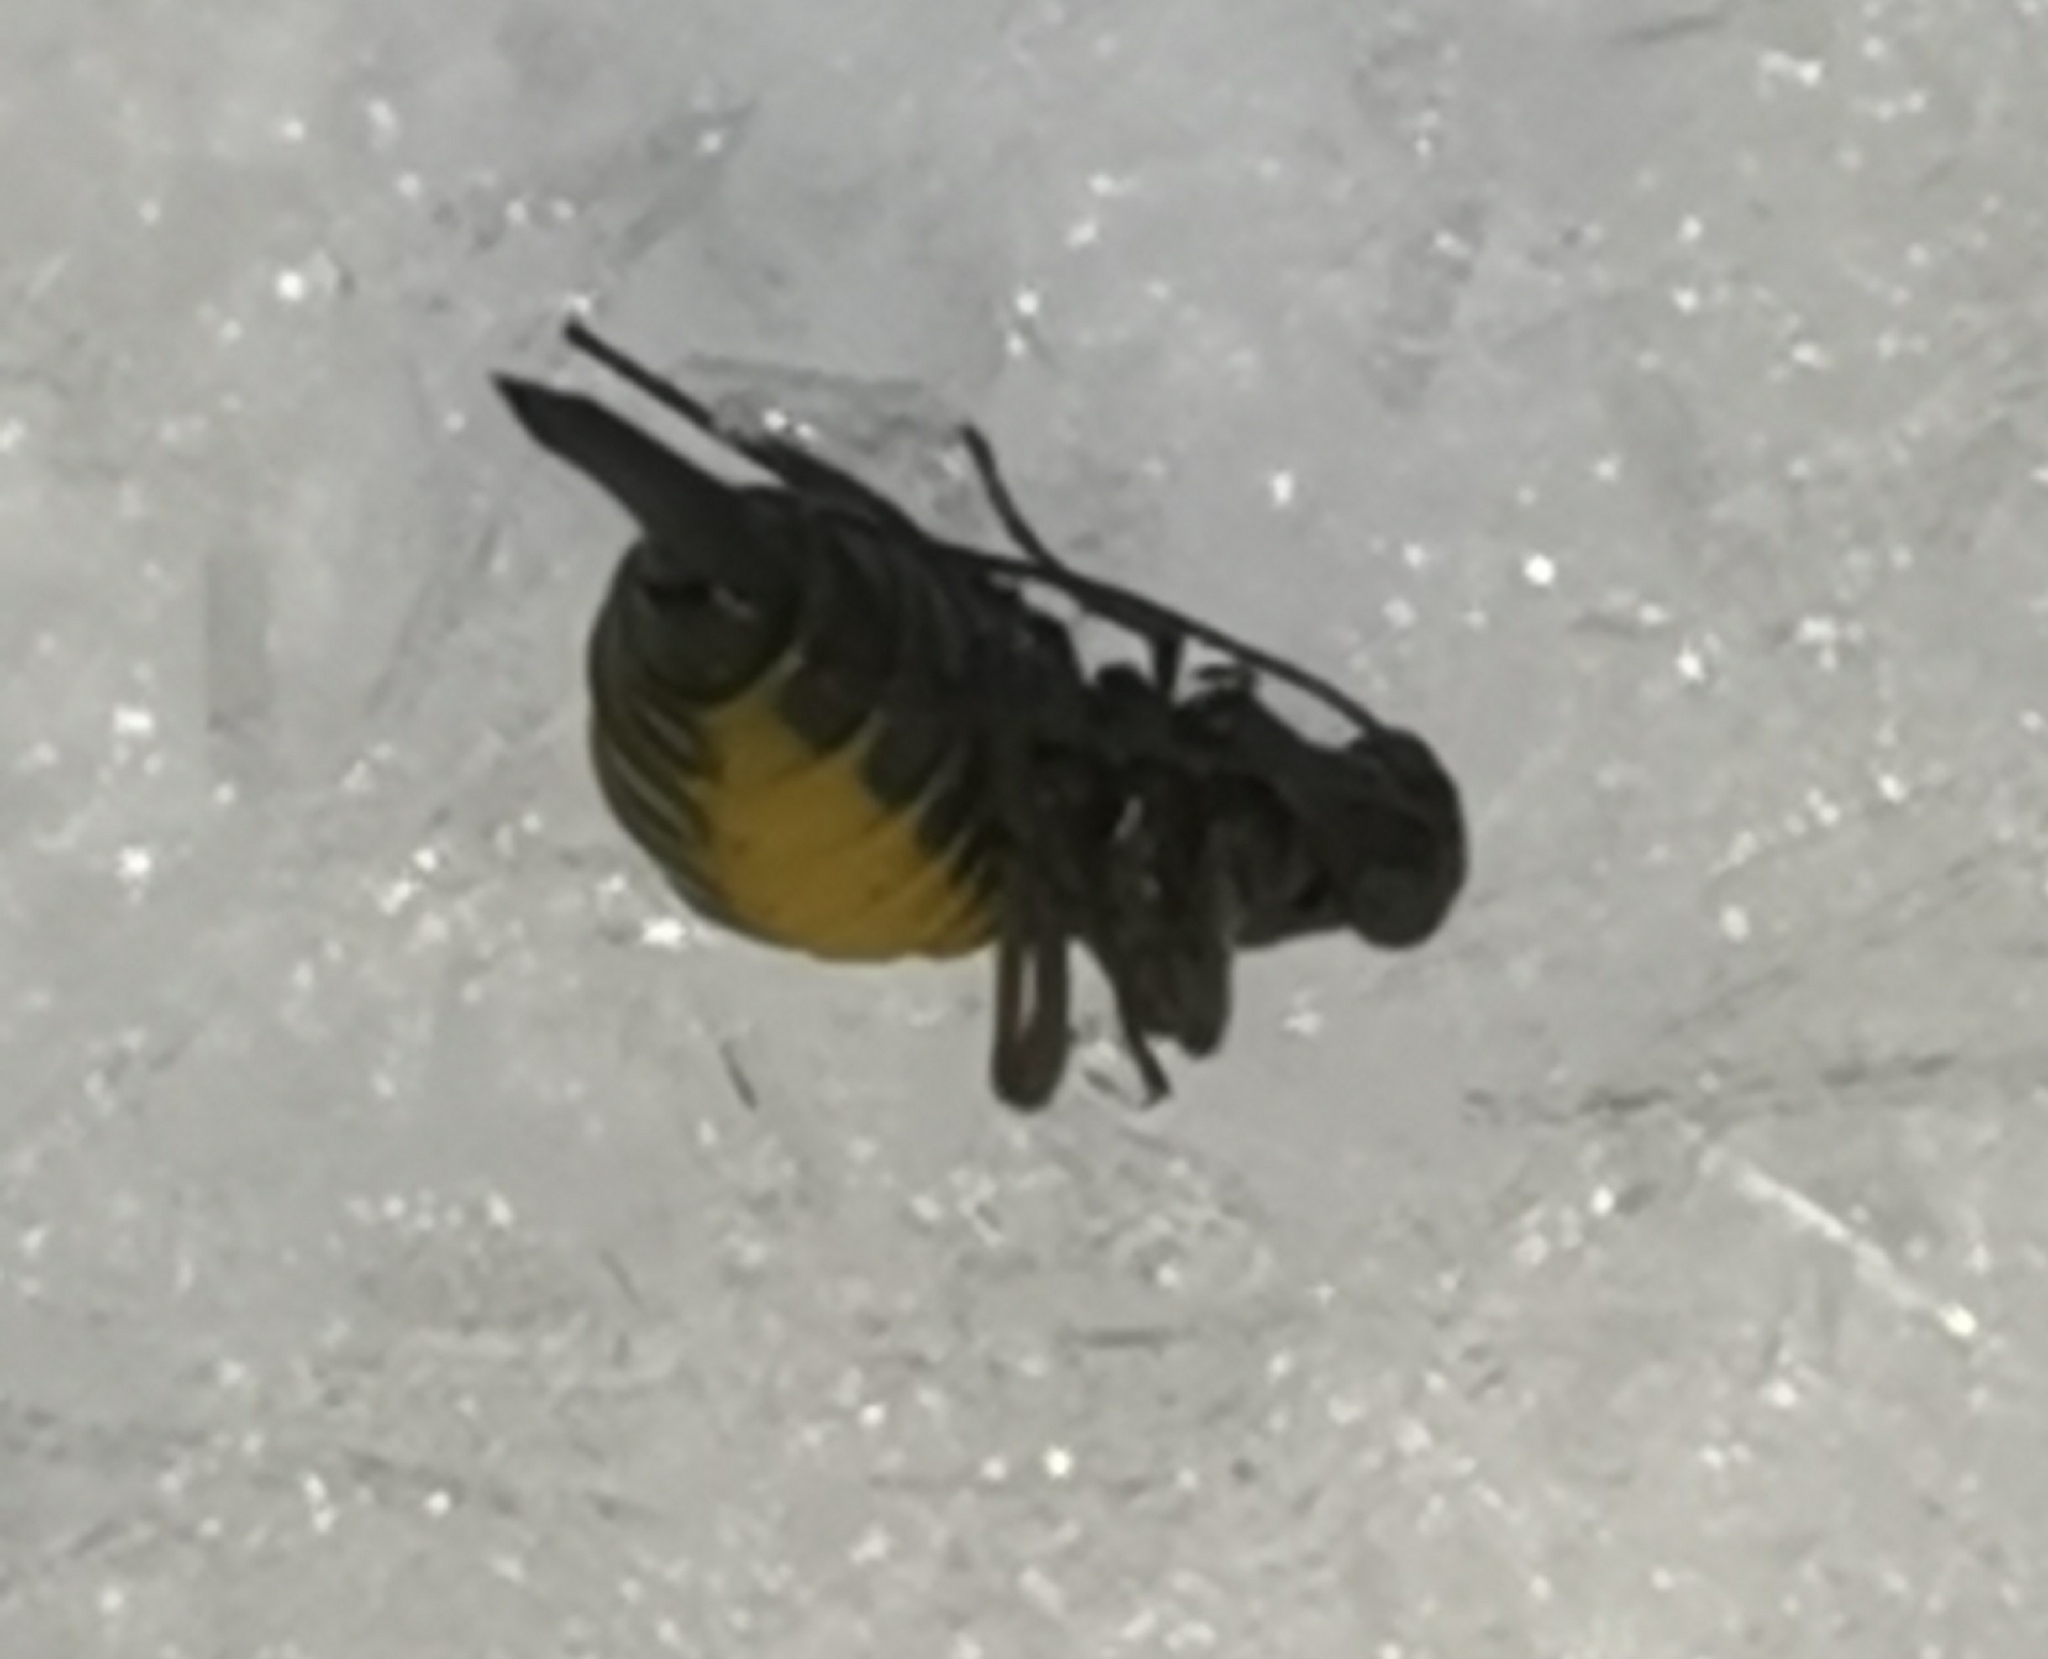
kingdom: Animalia
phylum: Arthropoda
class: Insecta
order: Mecoptera
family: Boreidae
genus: Boreus
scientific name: Boreus westwoodi
